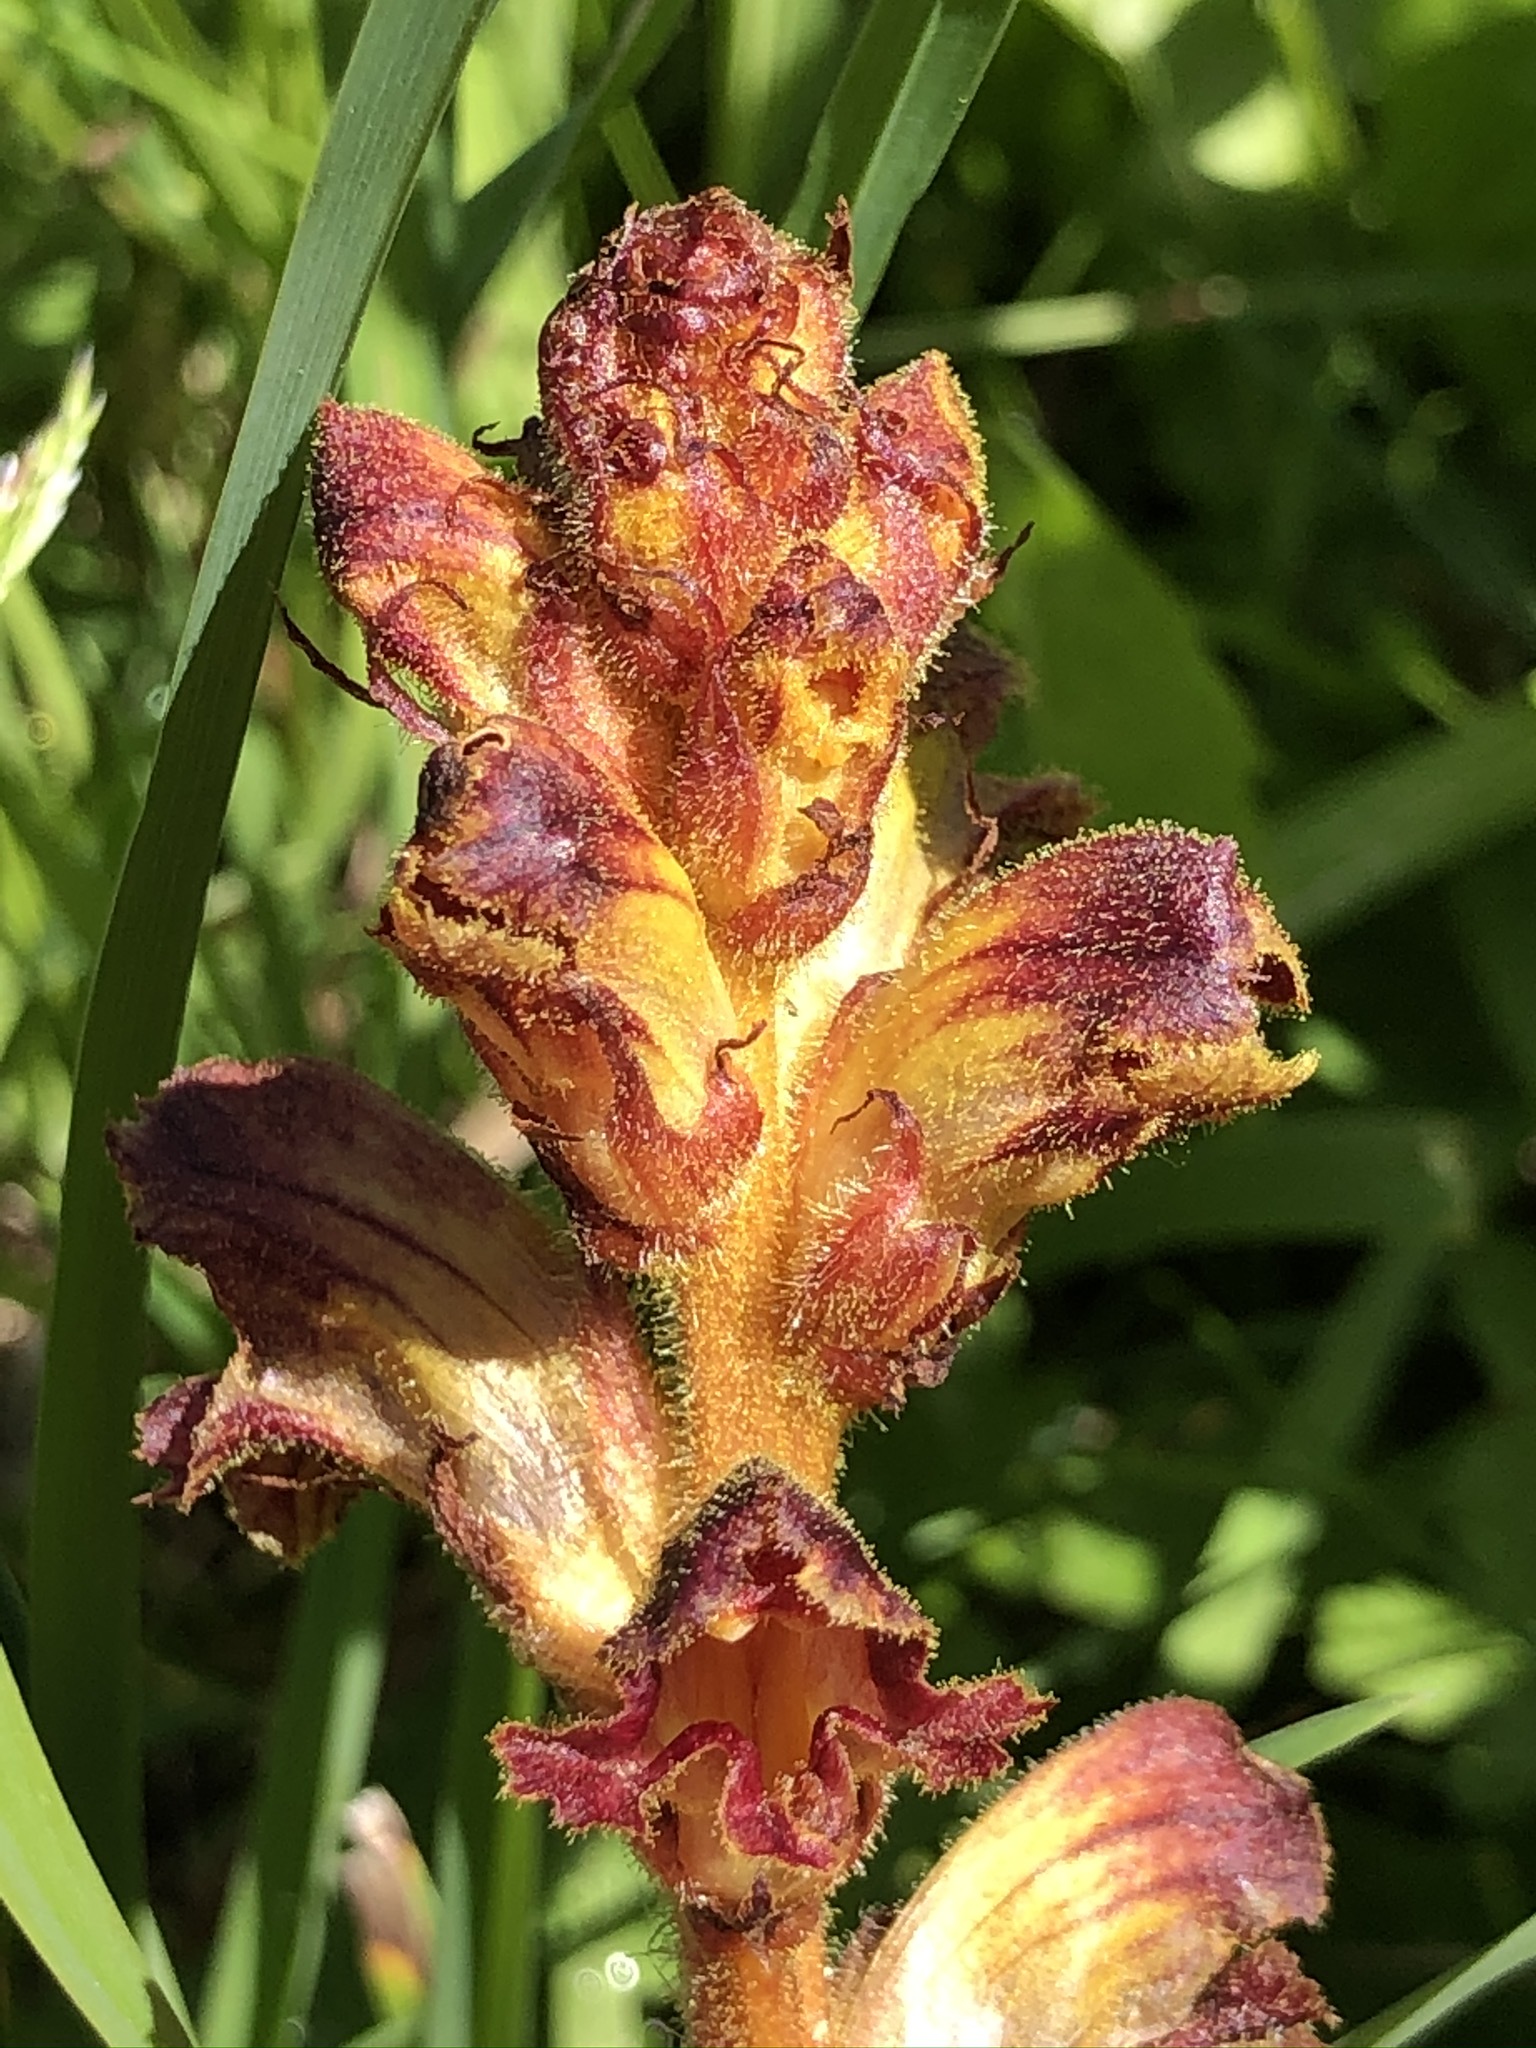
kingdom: Plantae
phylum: Tracheophyta
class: Magnoliopsida
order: Lamiales
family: Orobanchaceae
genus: Orobanche
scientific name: Orobanche gracilis
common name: Slender broomrape
